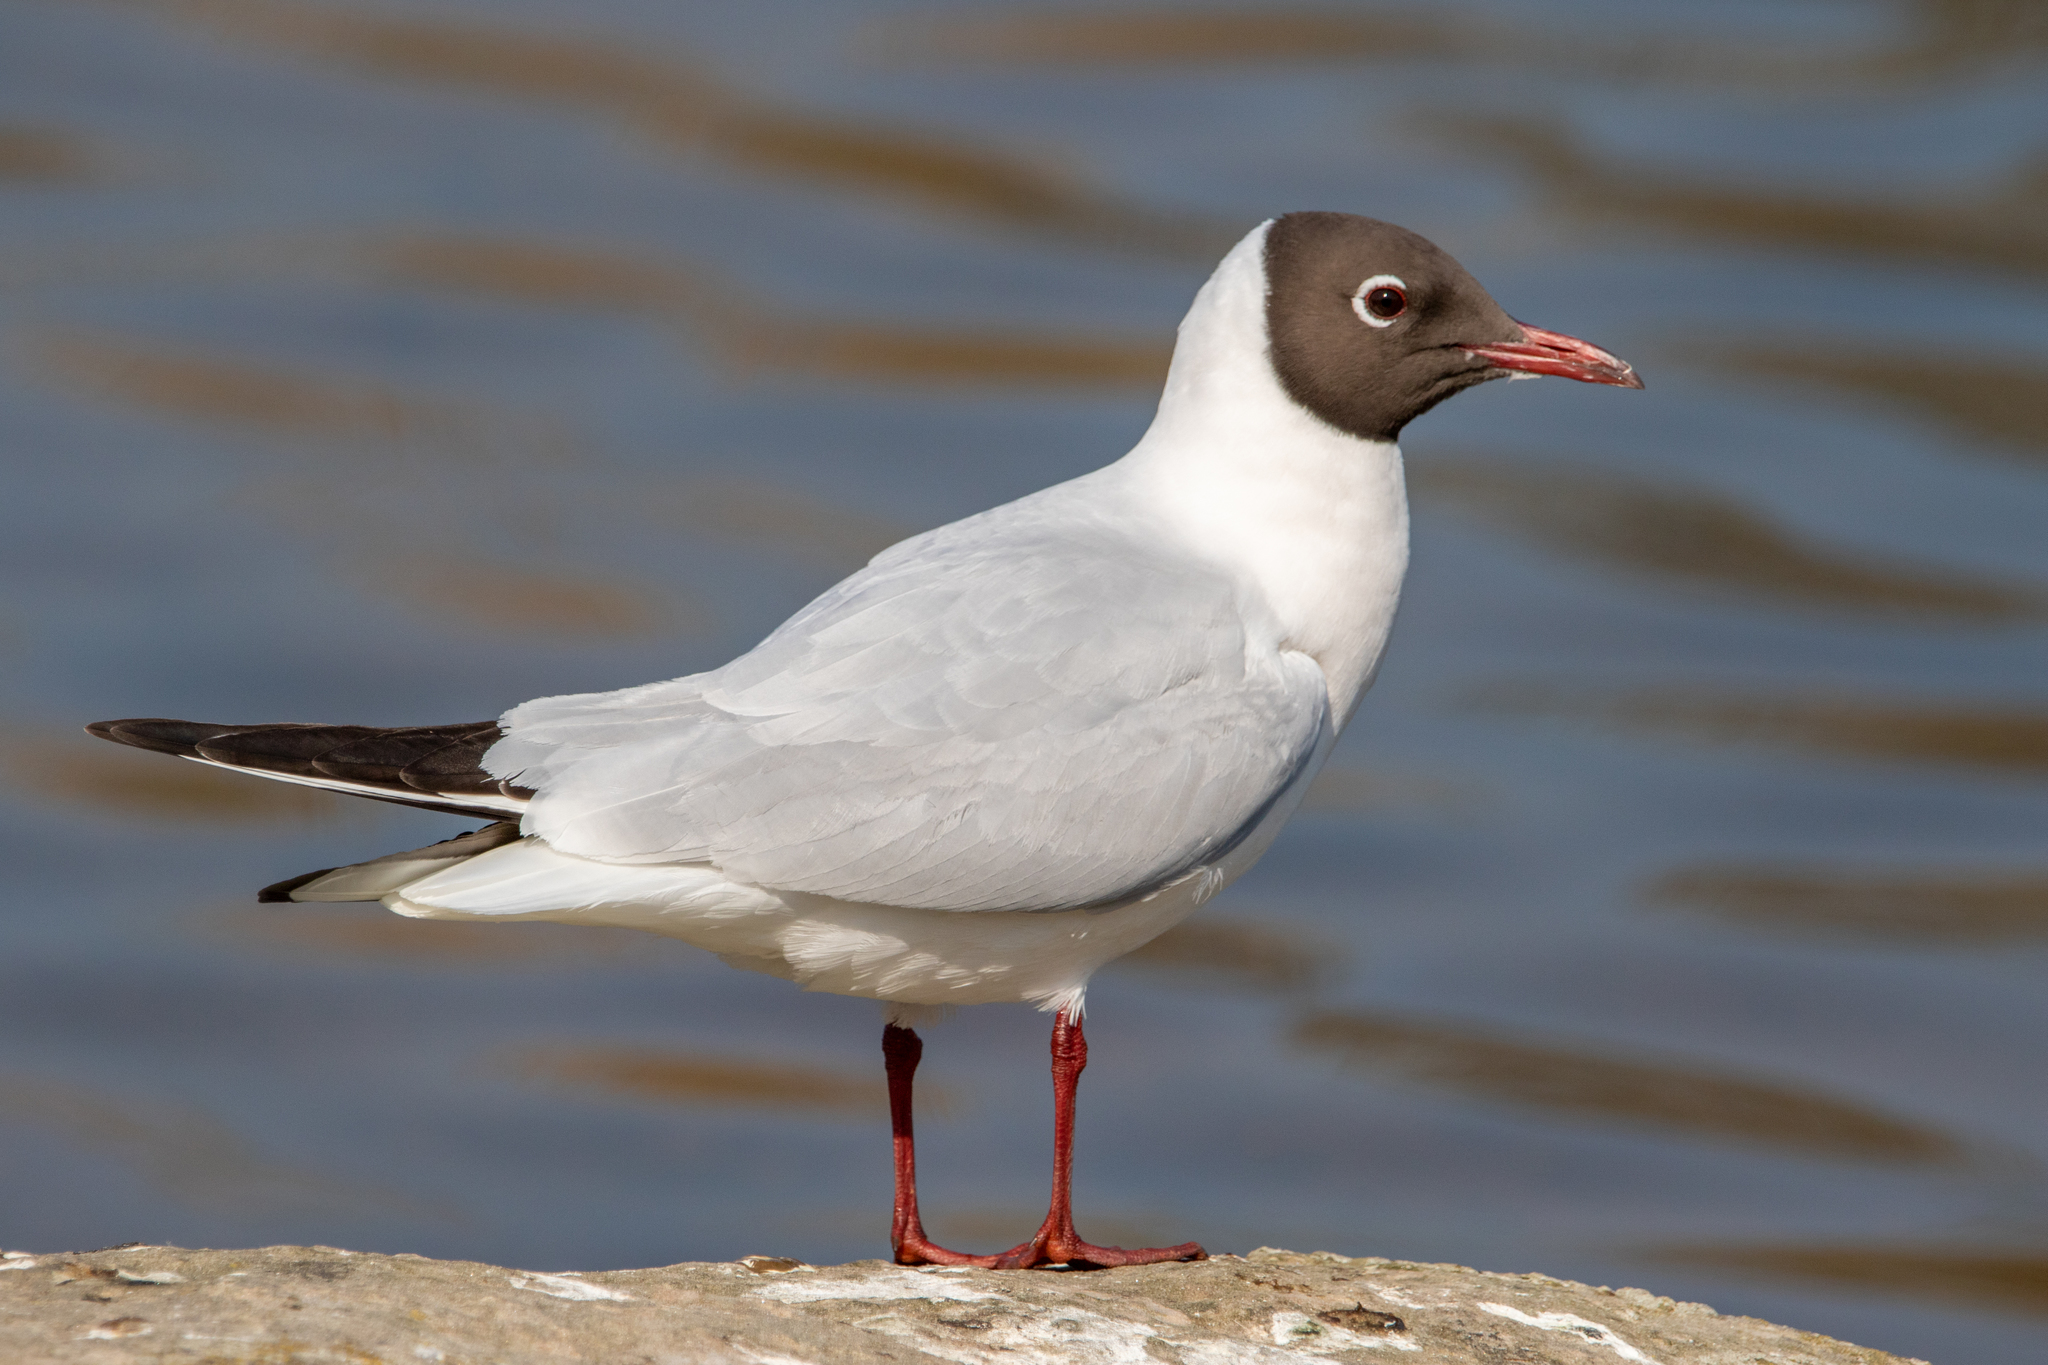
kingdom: Animalia
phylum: Chordata
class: Aves
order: Charadriiformes
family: Laridae
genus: Chroicocephalus
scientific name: Chroicocephalus ridibundus
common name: Black-headed gull
